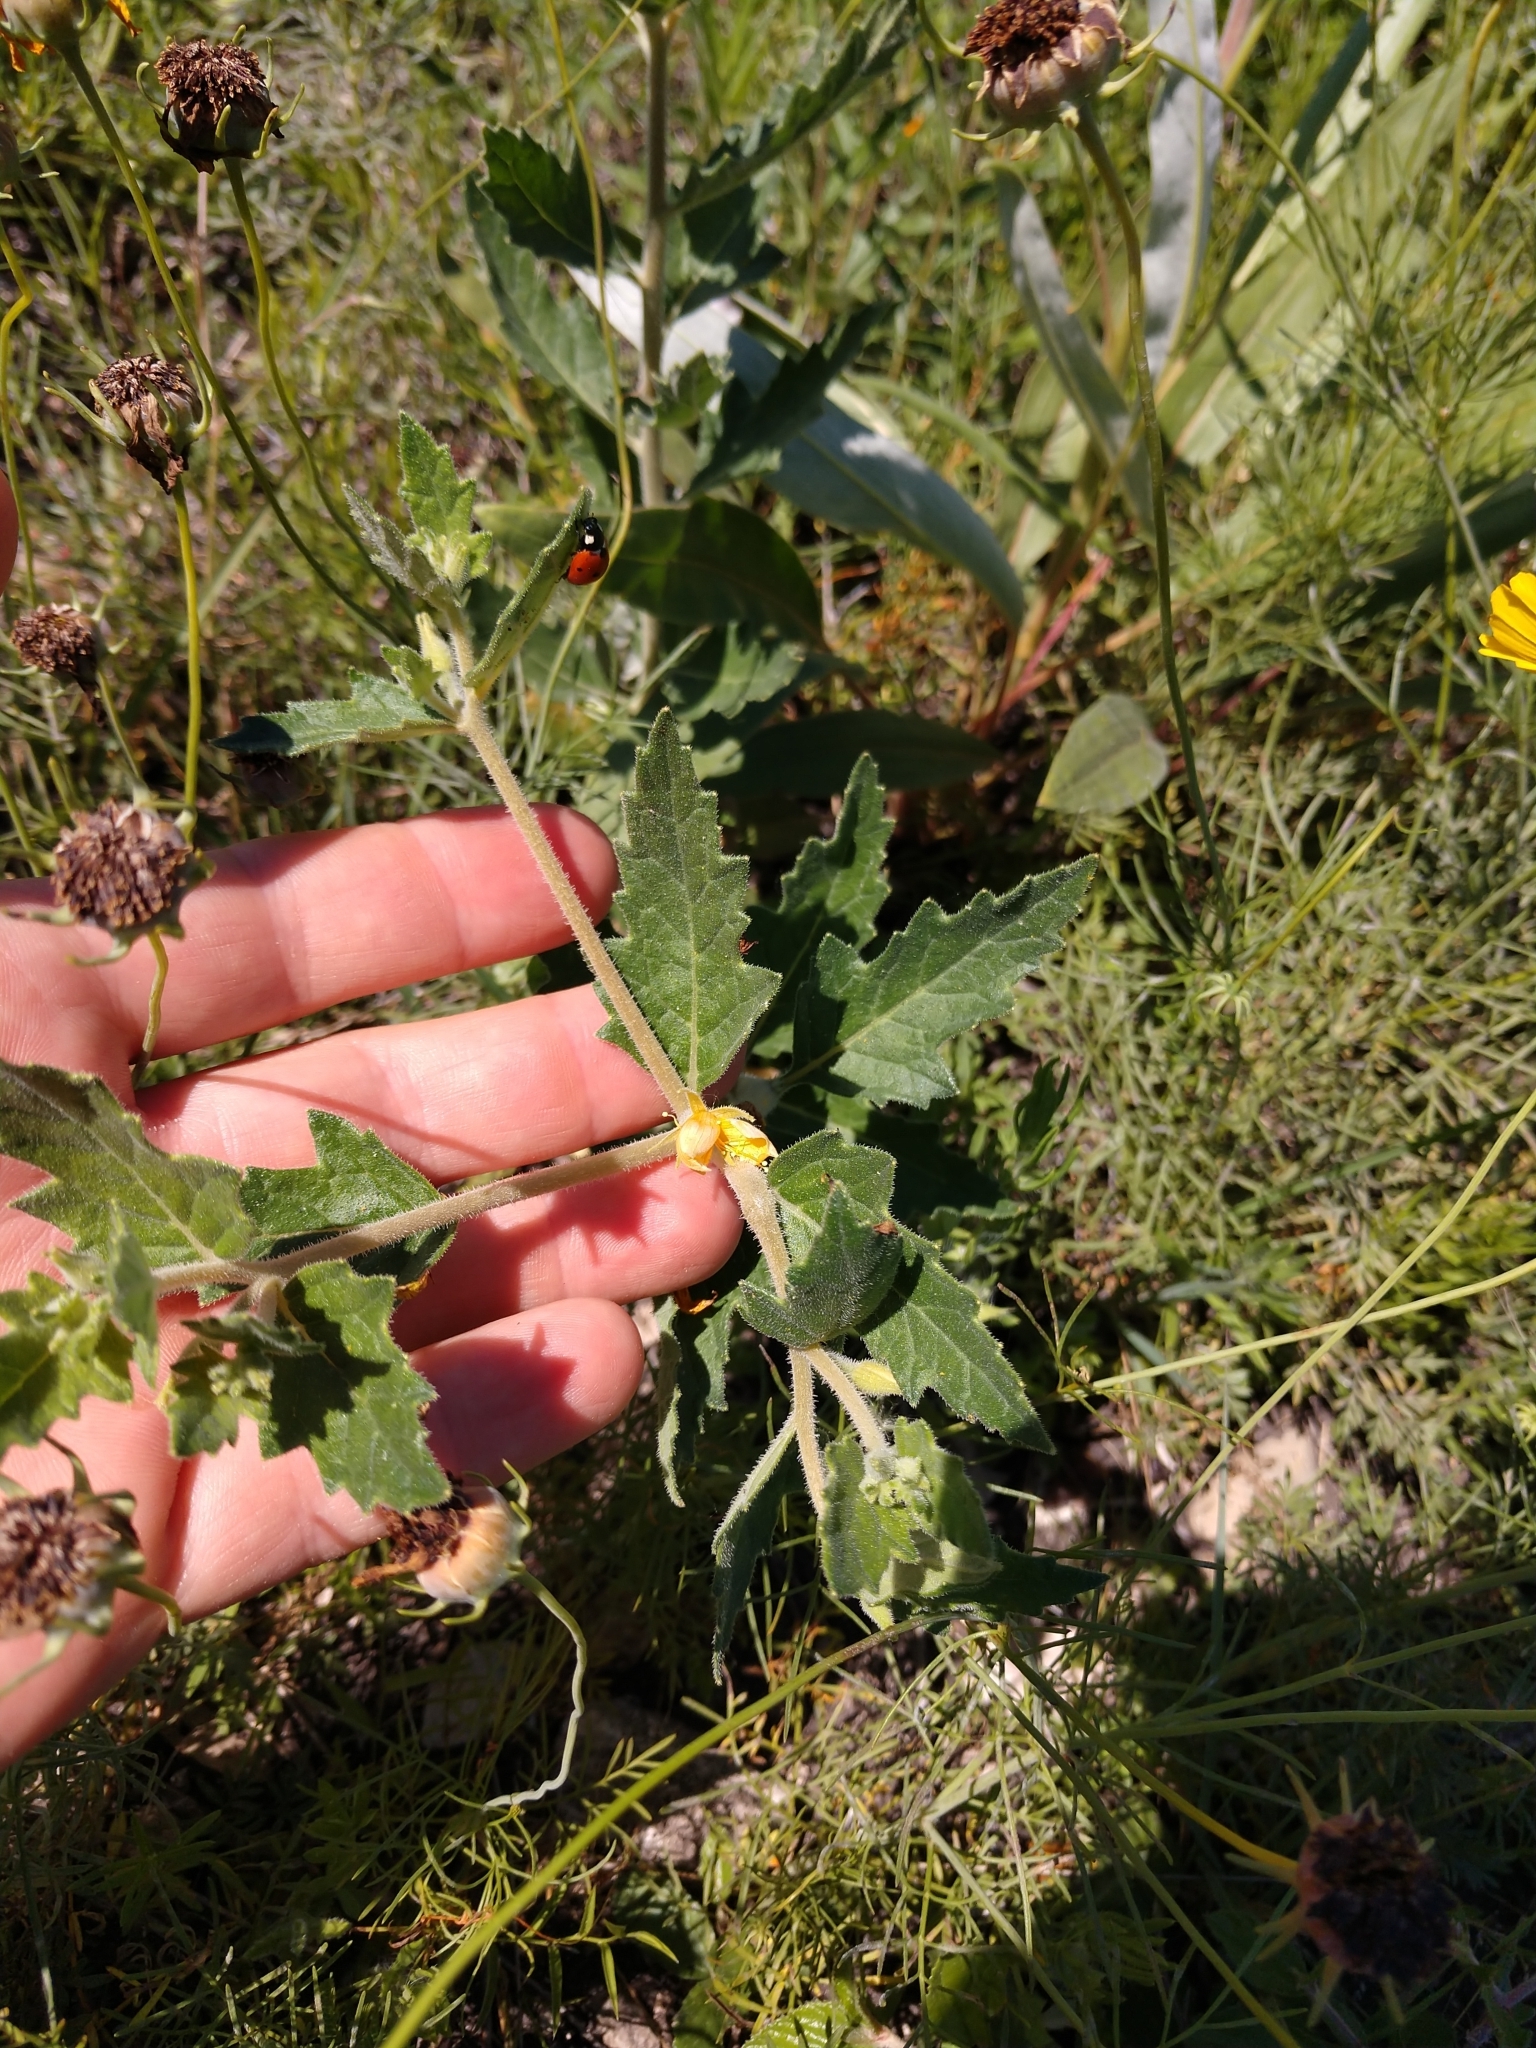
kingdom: Plantae
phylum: Tracheophyta
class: Magnoliopsida
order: Cornales
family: Loasaceae
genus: Mentzelia
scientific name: Mentzelia oligosperma
